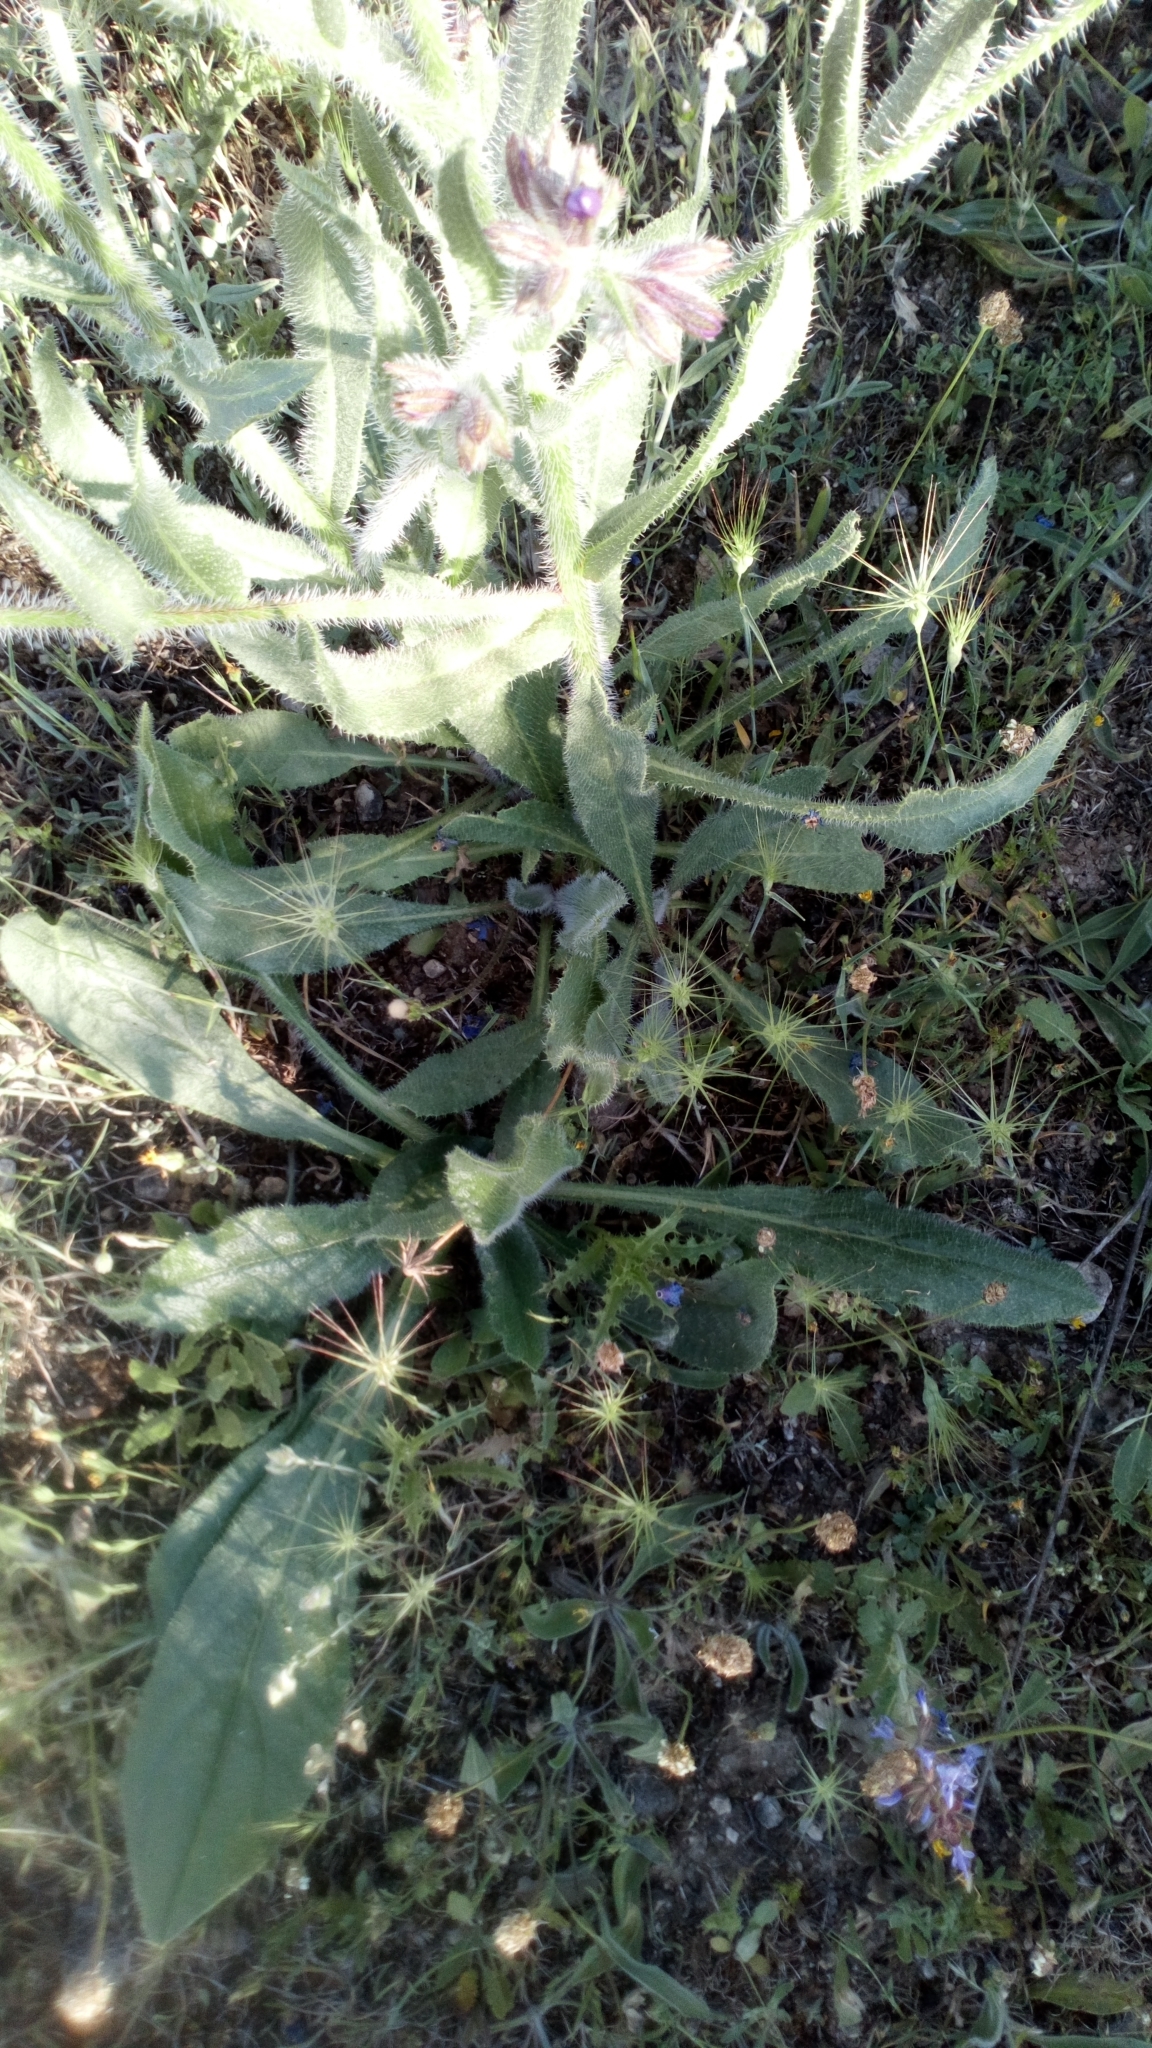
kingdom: Plantae
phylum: Tracheophyta
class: Magnoliopsida
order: Boraginales
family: Boraginaceae
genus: Anchusa
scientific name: Anchusa azurea
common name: Garden anchusa
